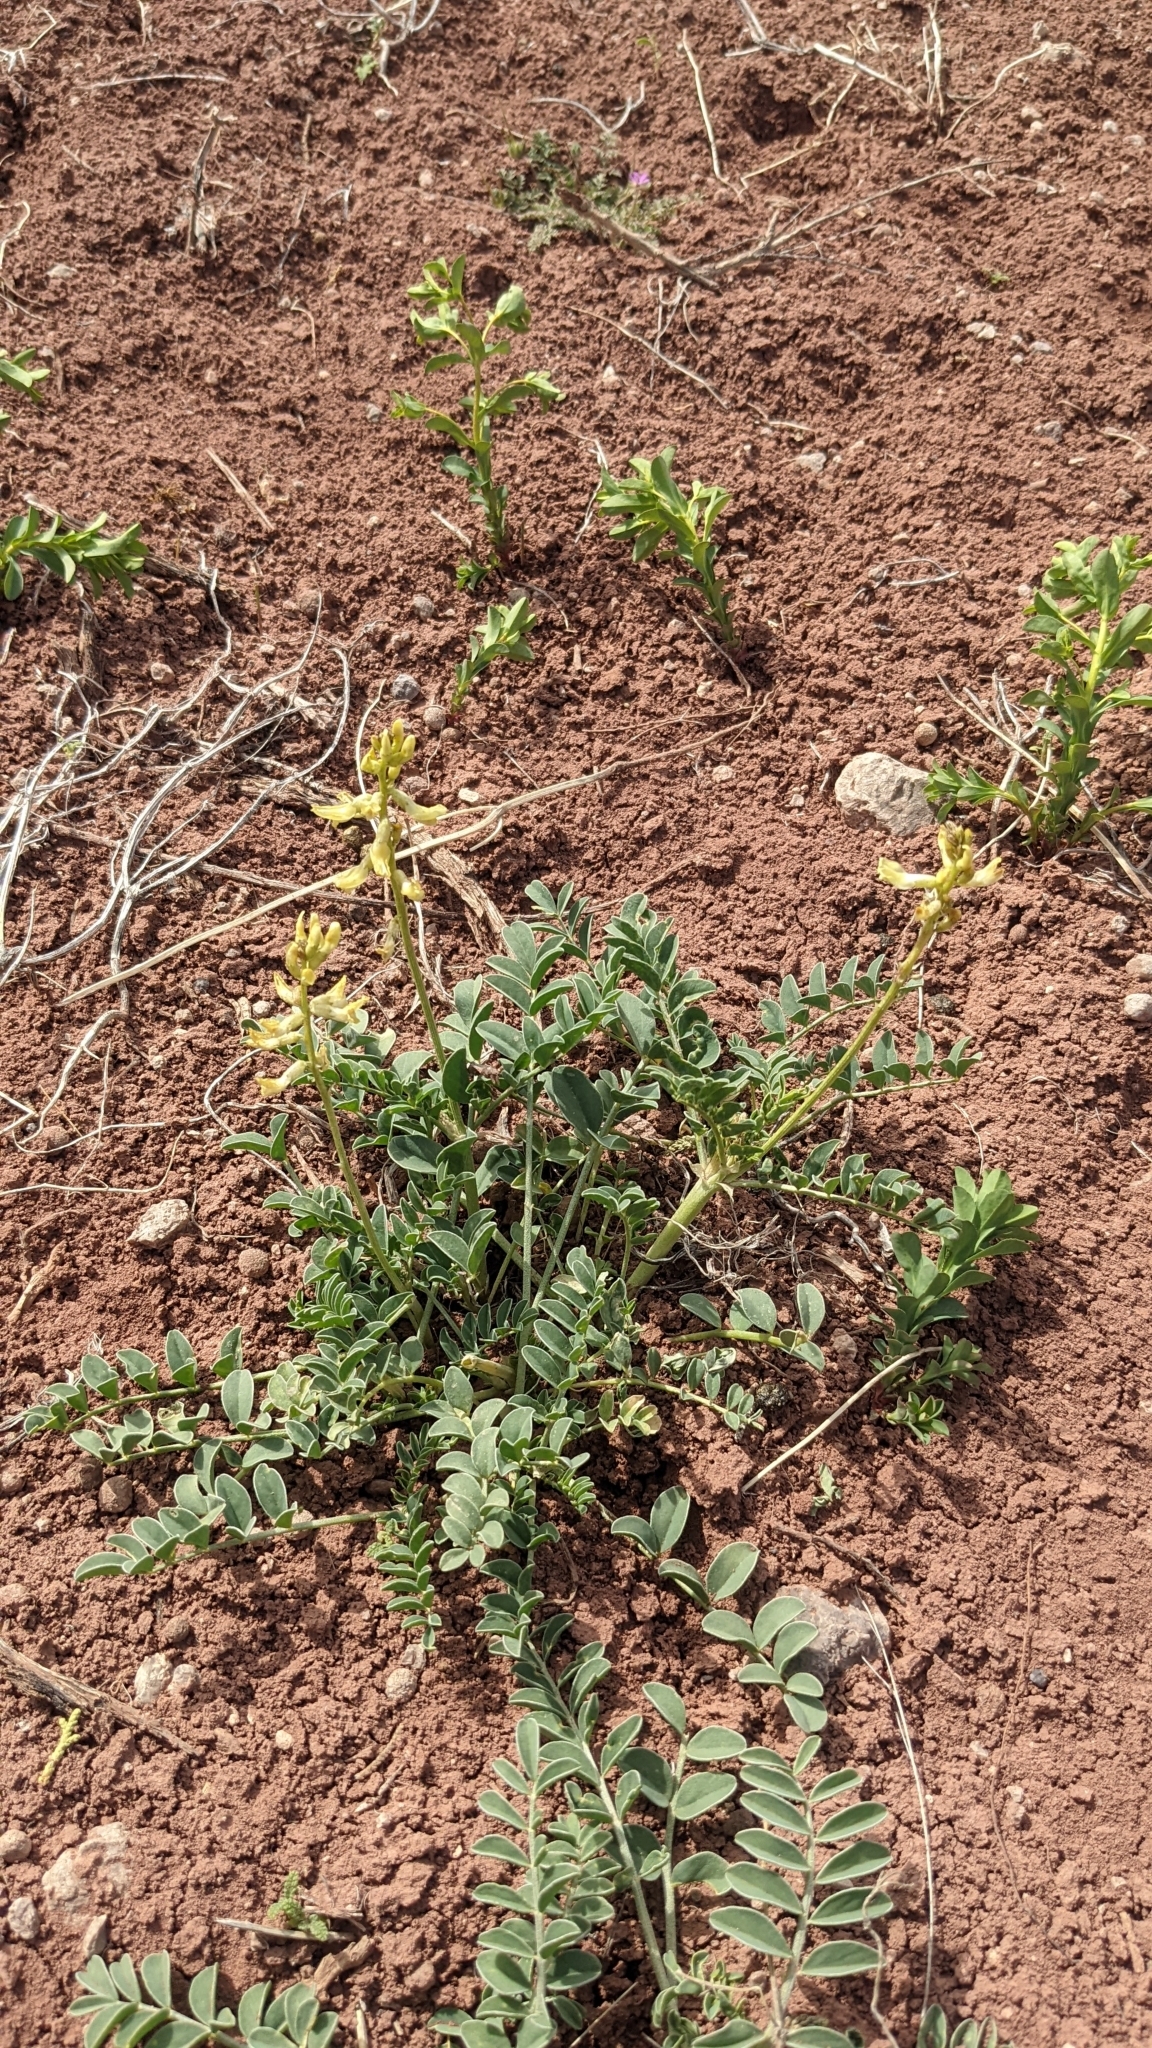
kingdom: Plantae
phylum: Tracheophyta
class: Magnoliopsida
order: Fabales
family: Fabaceae
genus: Astragalus
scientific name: Astragalus ampullarioides
